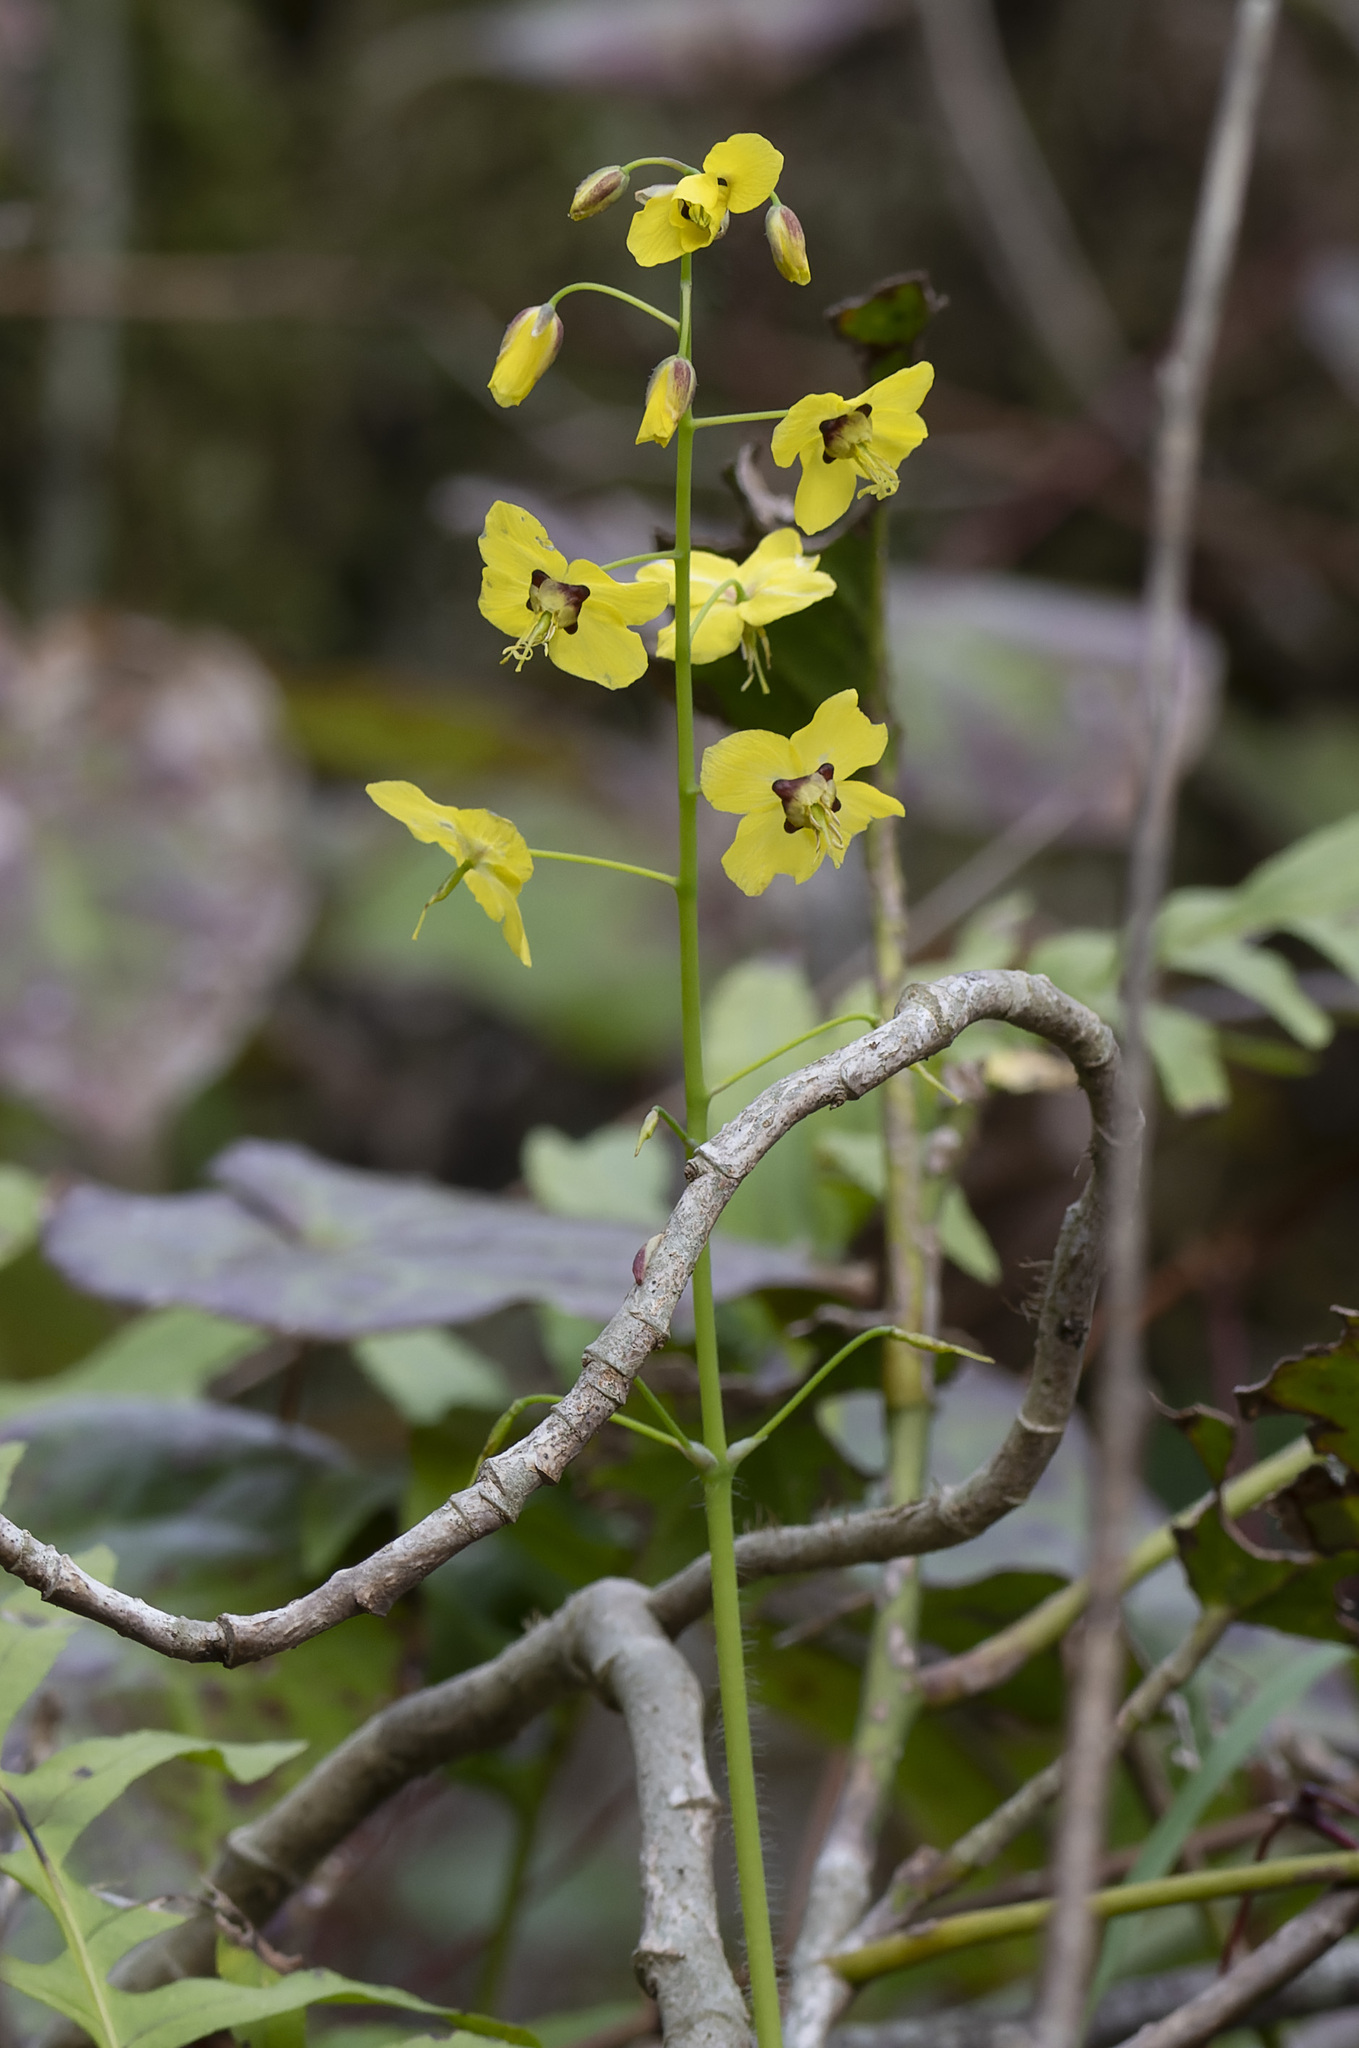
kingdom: Plantae
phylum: Tracheophyta
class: Magnoliopsida
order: Ranunculales
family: Berberidaceae
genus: Epimedium
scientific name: Epimedium pinnatum
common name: Caucasian barrenwort
